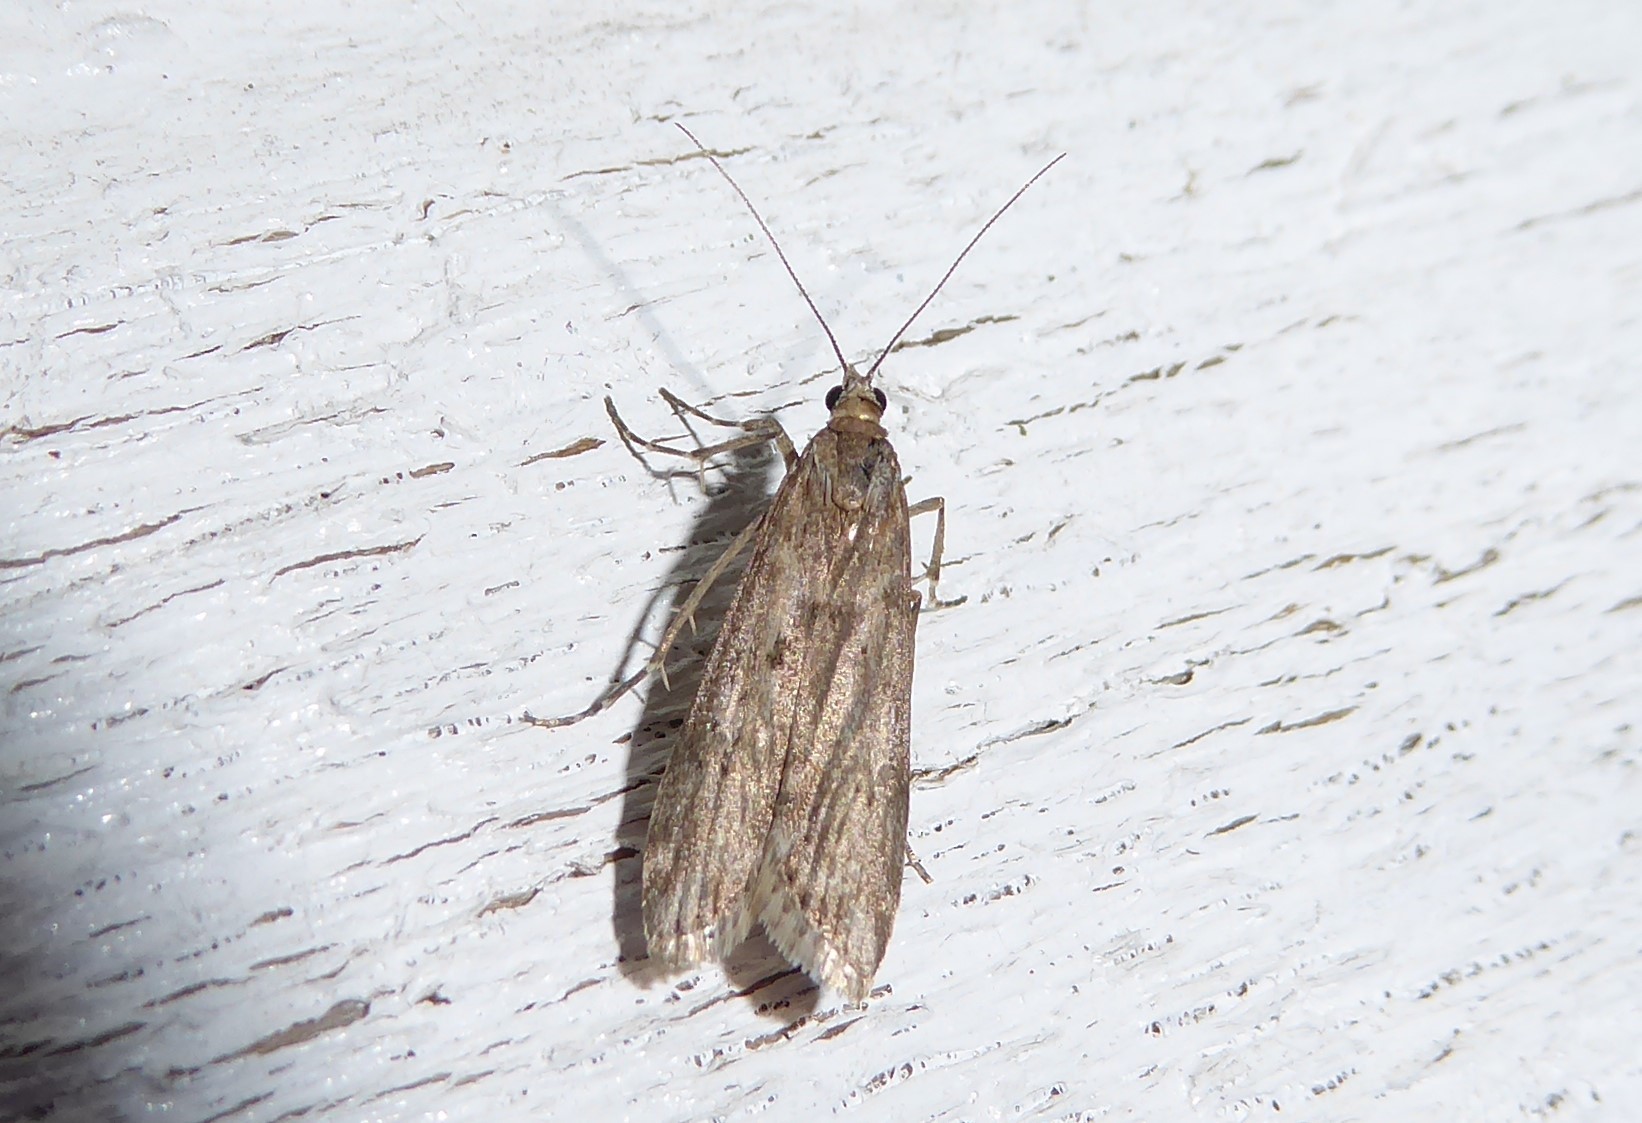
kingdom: Animalia
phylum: Arthropoda
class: Insecta
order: Lepidoptera
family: Crambidae
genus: Eudonia
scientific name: Eudonia leptalea
